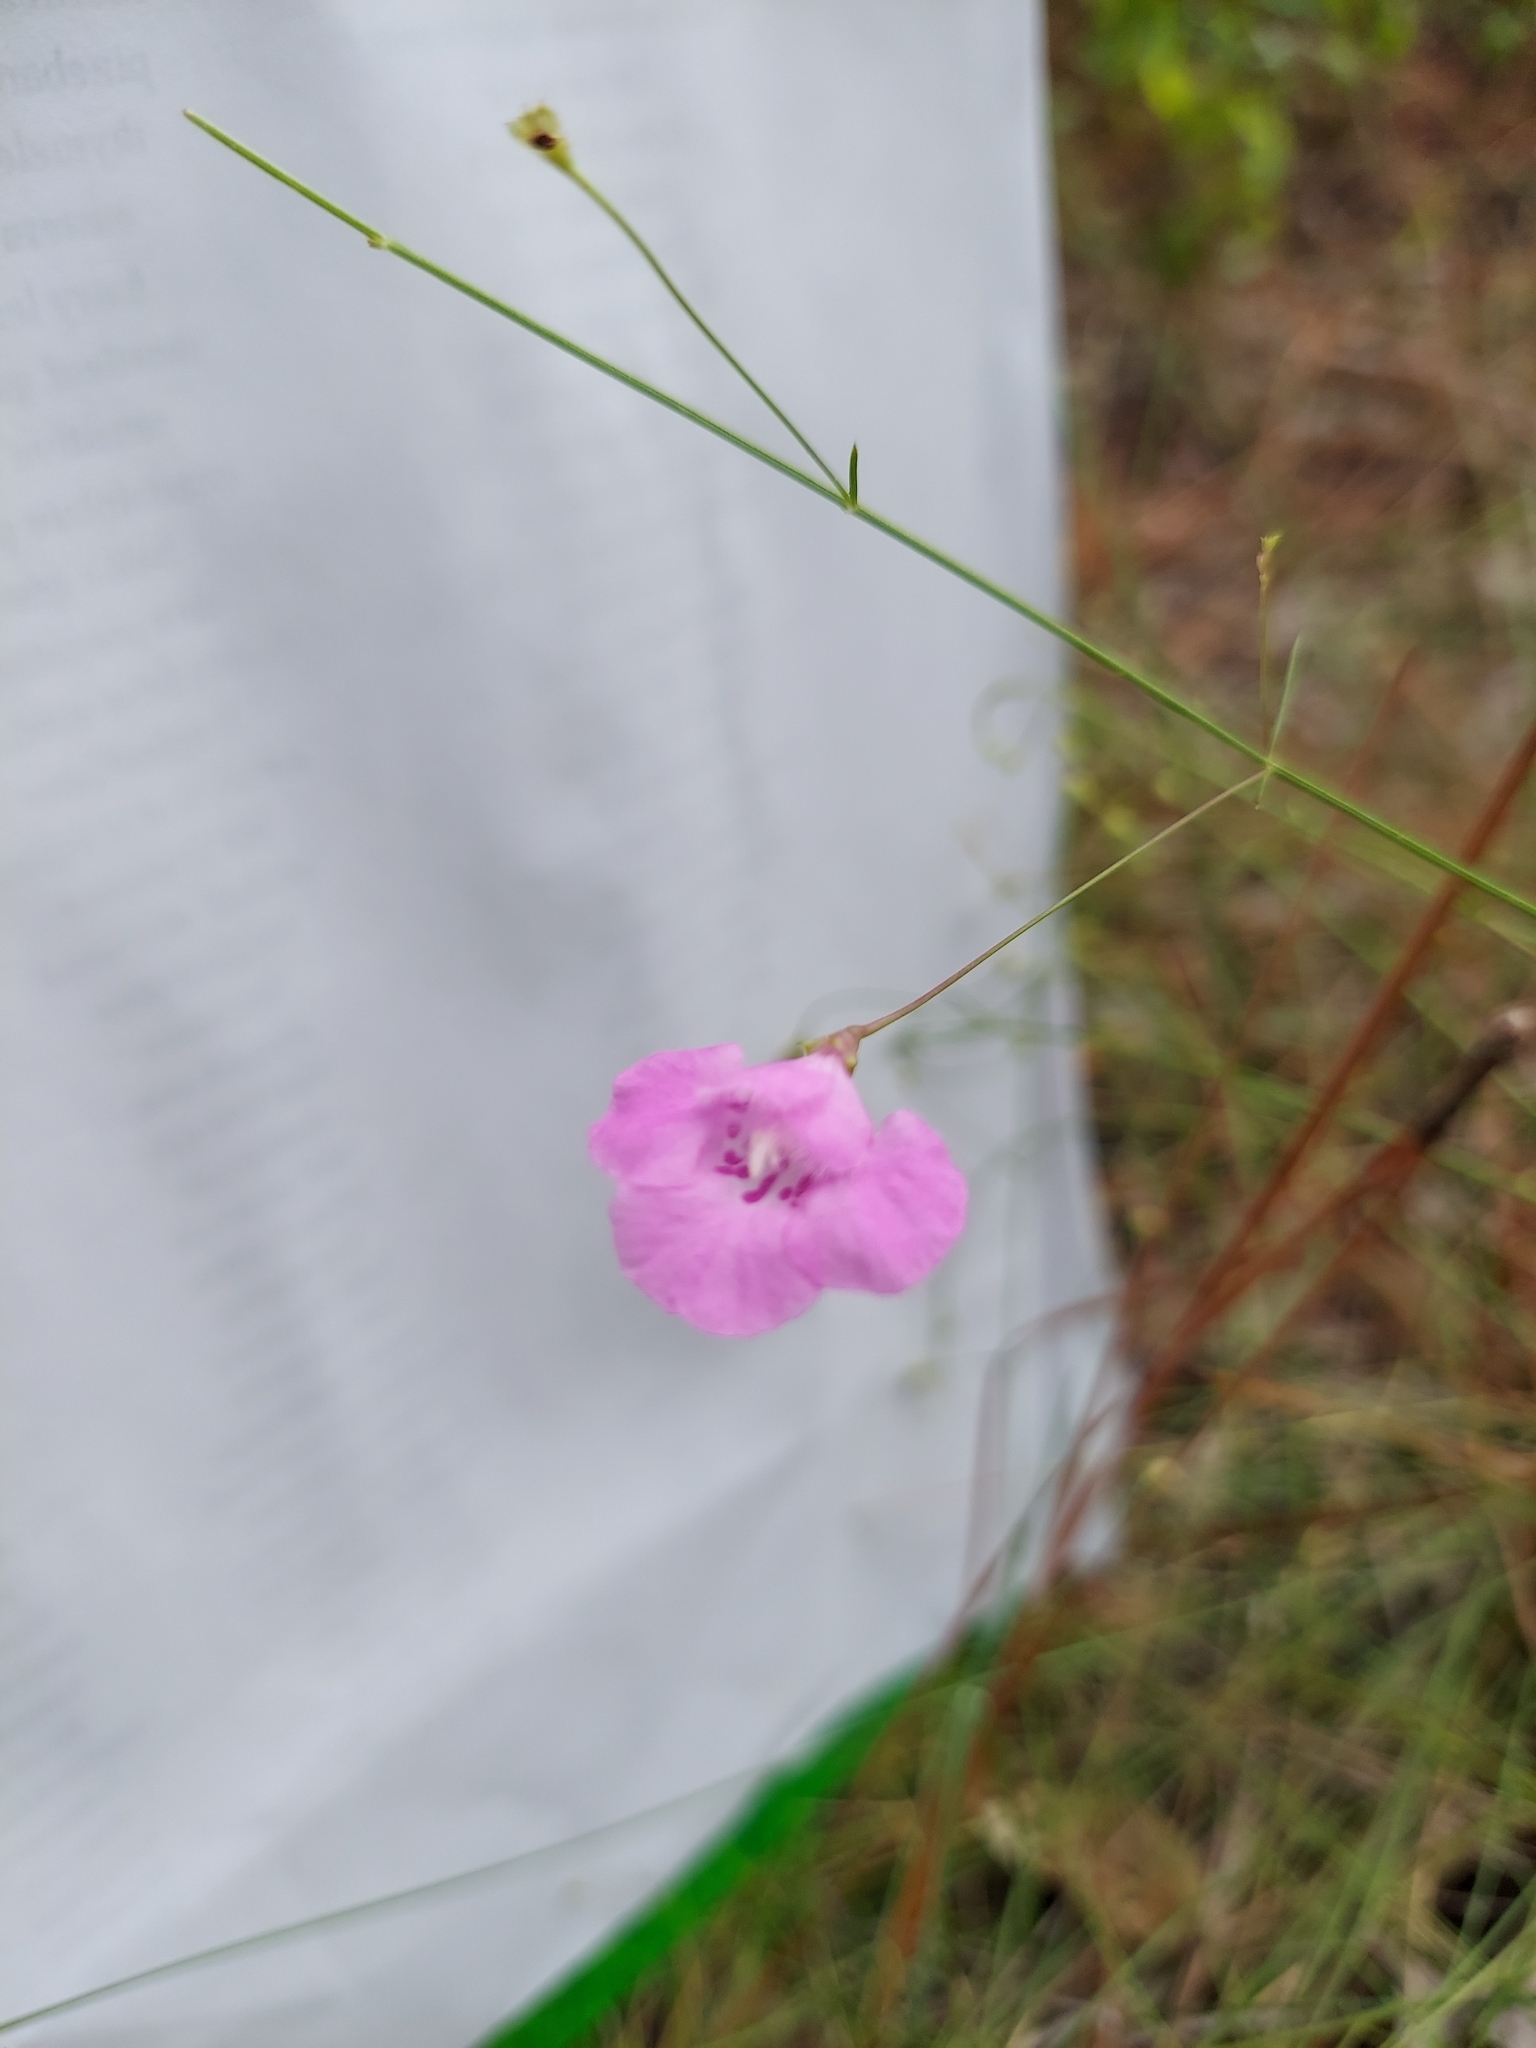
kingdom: Plantae
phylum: Tracheophyta
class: Magnoliopsida
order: Lamiales
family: Orobanchaceae
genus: Agalinis
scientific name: Agalinis divaricata
